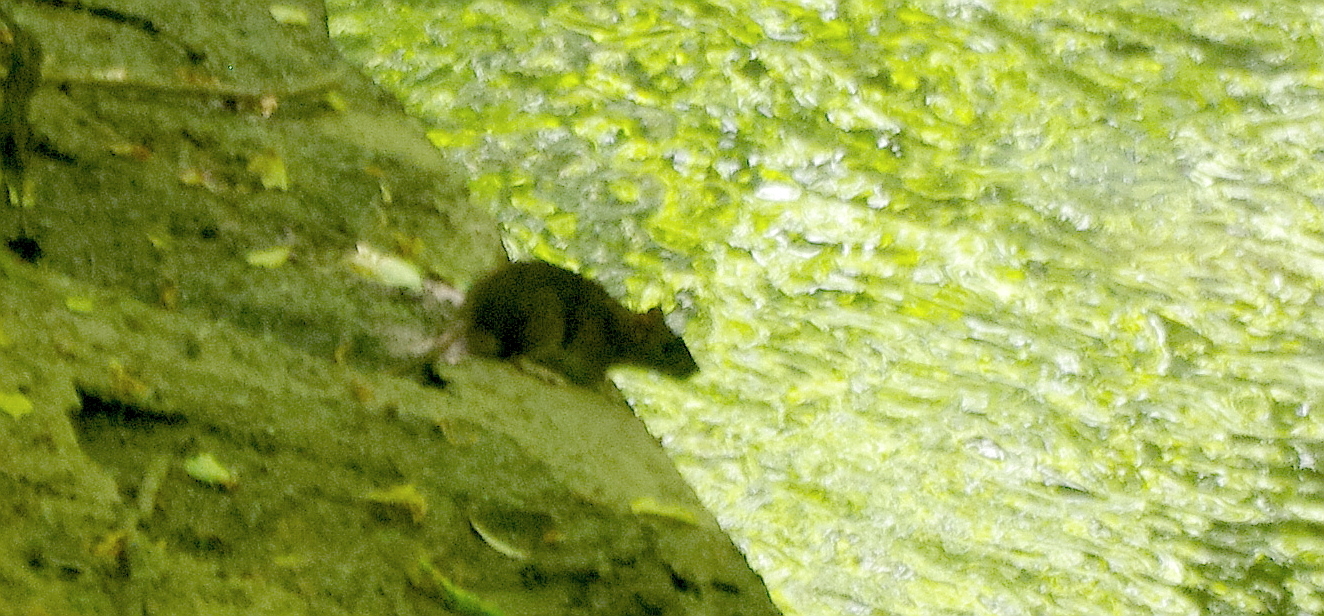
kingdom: Animalia
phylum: Chordata
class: Mammalia
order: Rodentia
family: Muridae
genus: Rattus
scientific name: Rattus norvegicus
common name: Brown rat
